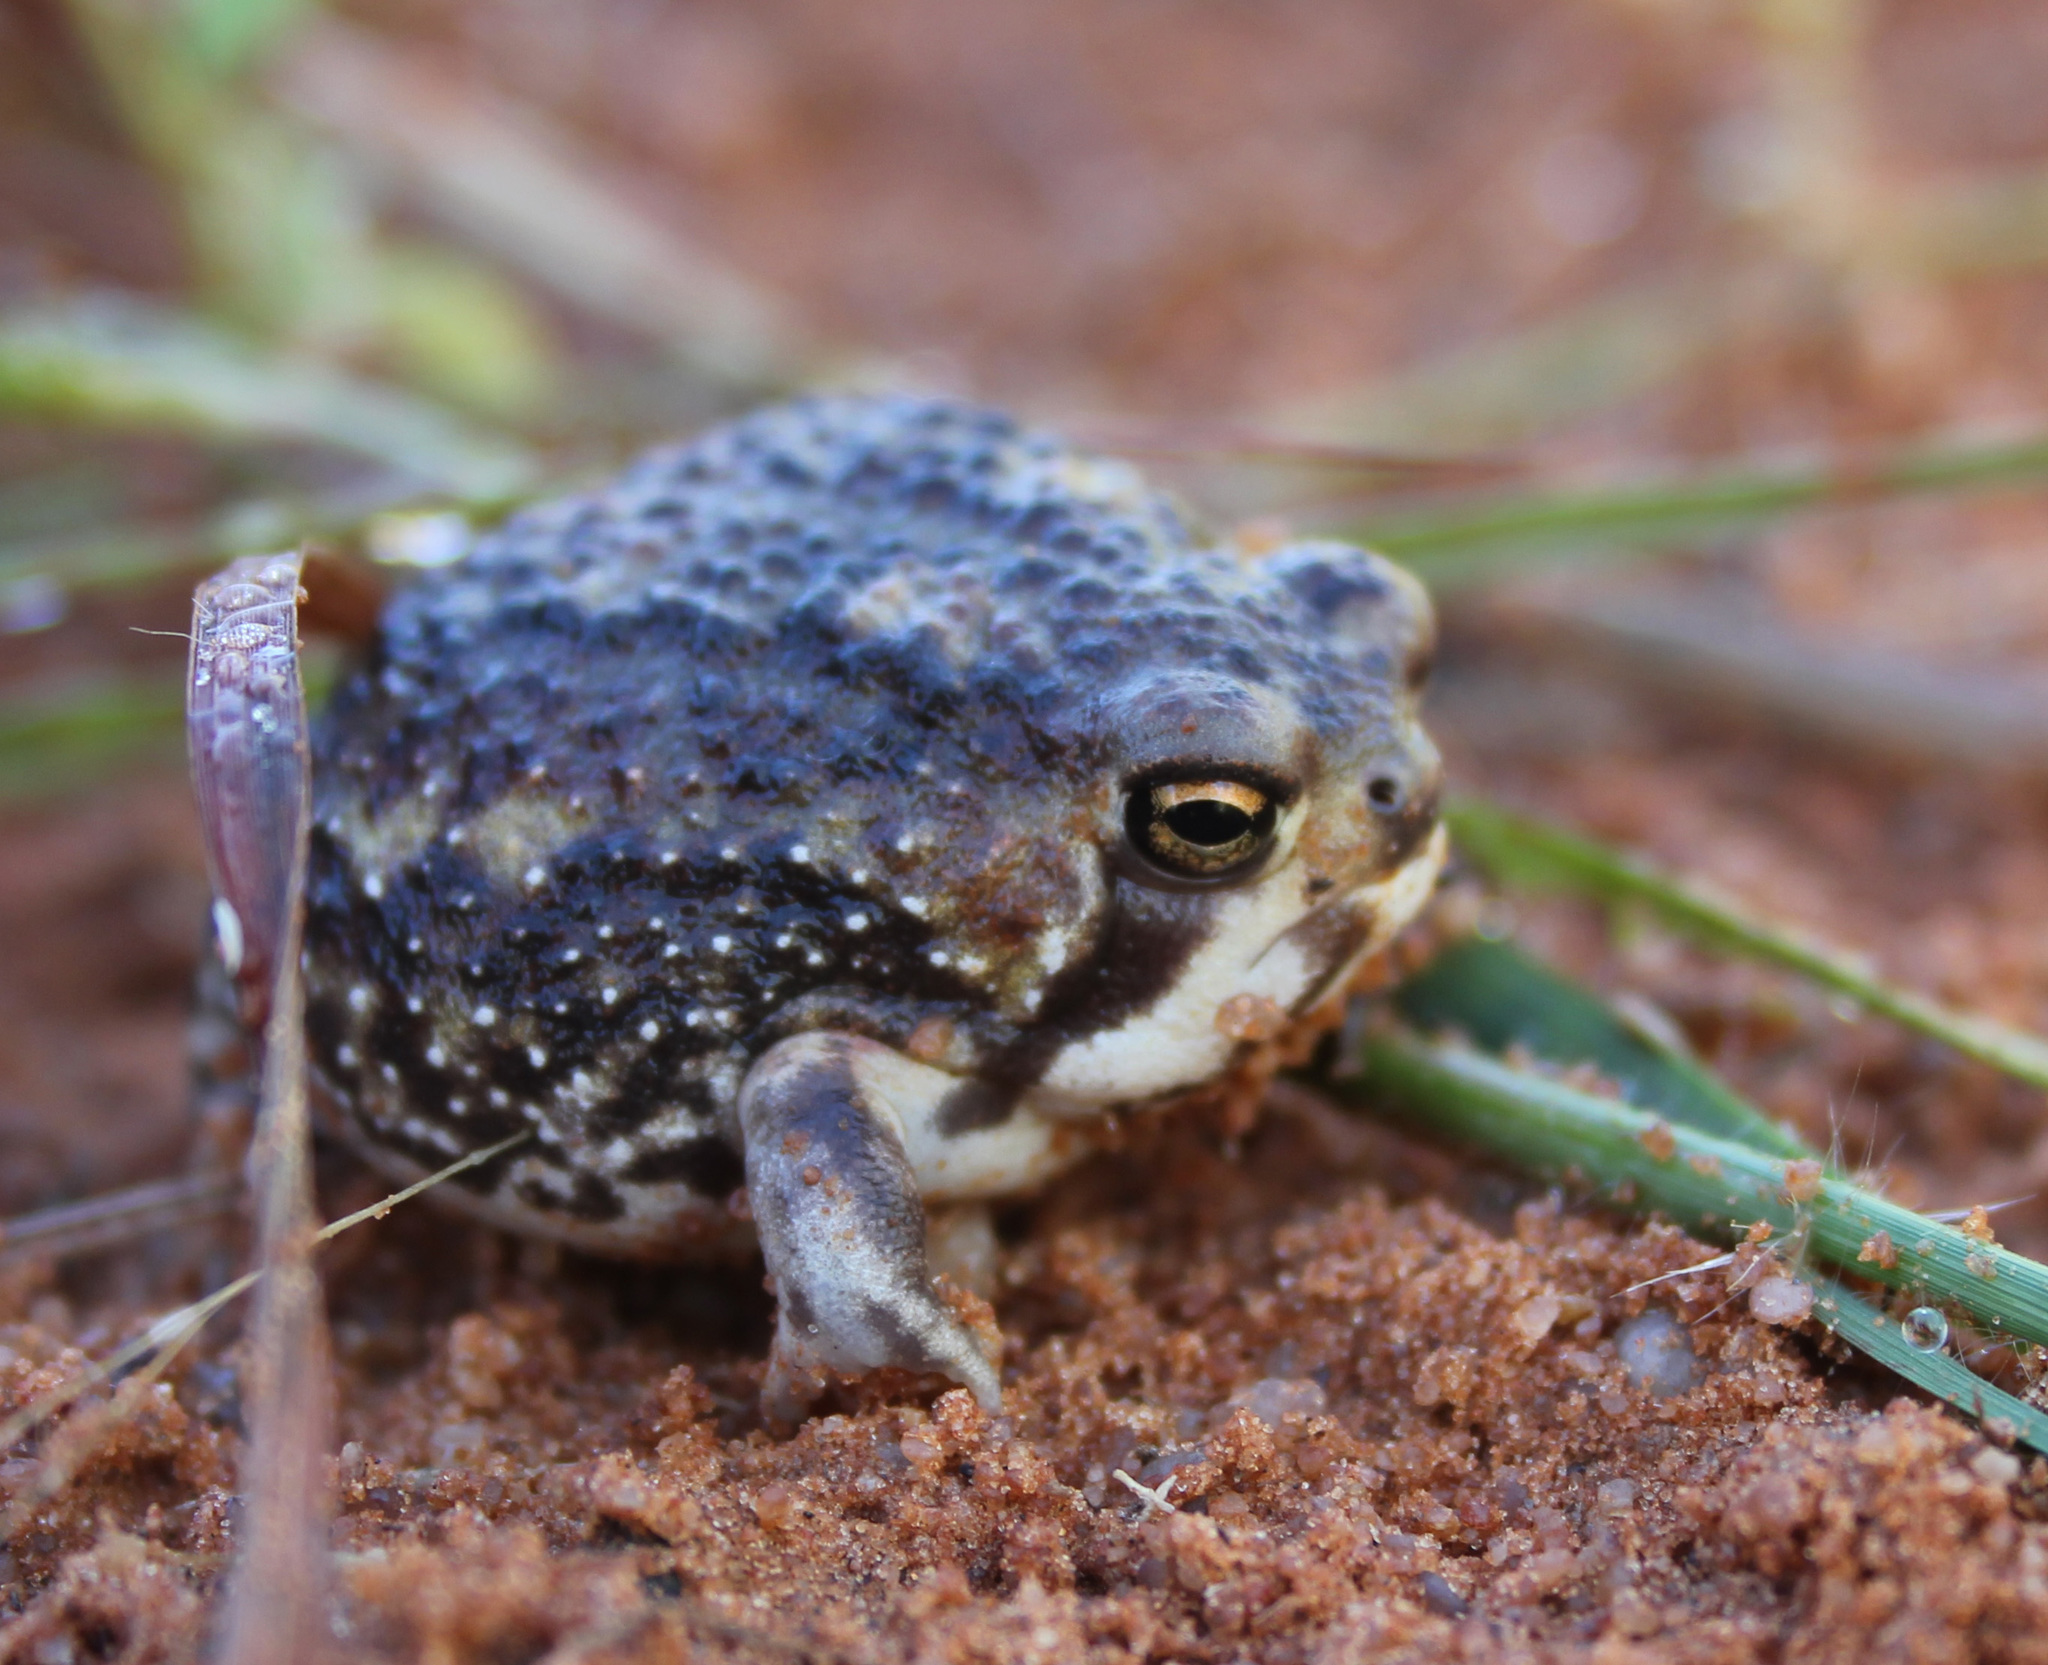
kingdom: Animalia
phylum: Chordata
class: Amphibia
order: Anura
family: Brevicipitidae
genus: Breviceps
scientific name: Breviceps adspersus
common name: Common rain frog
